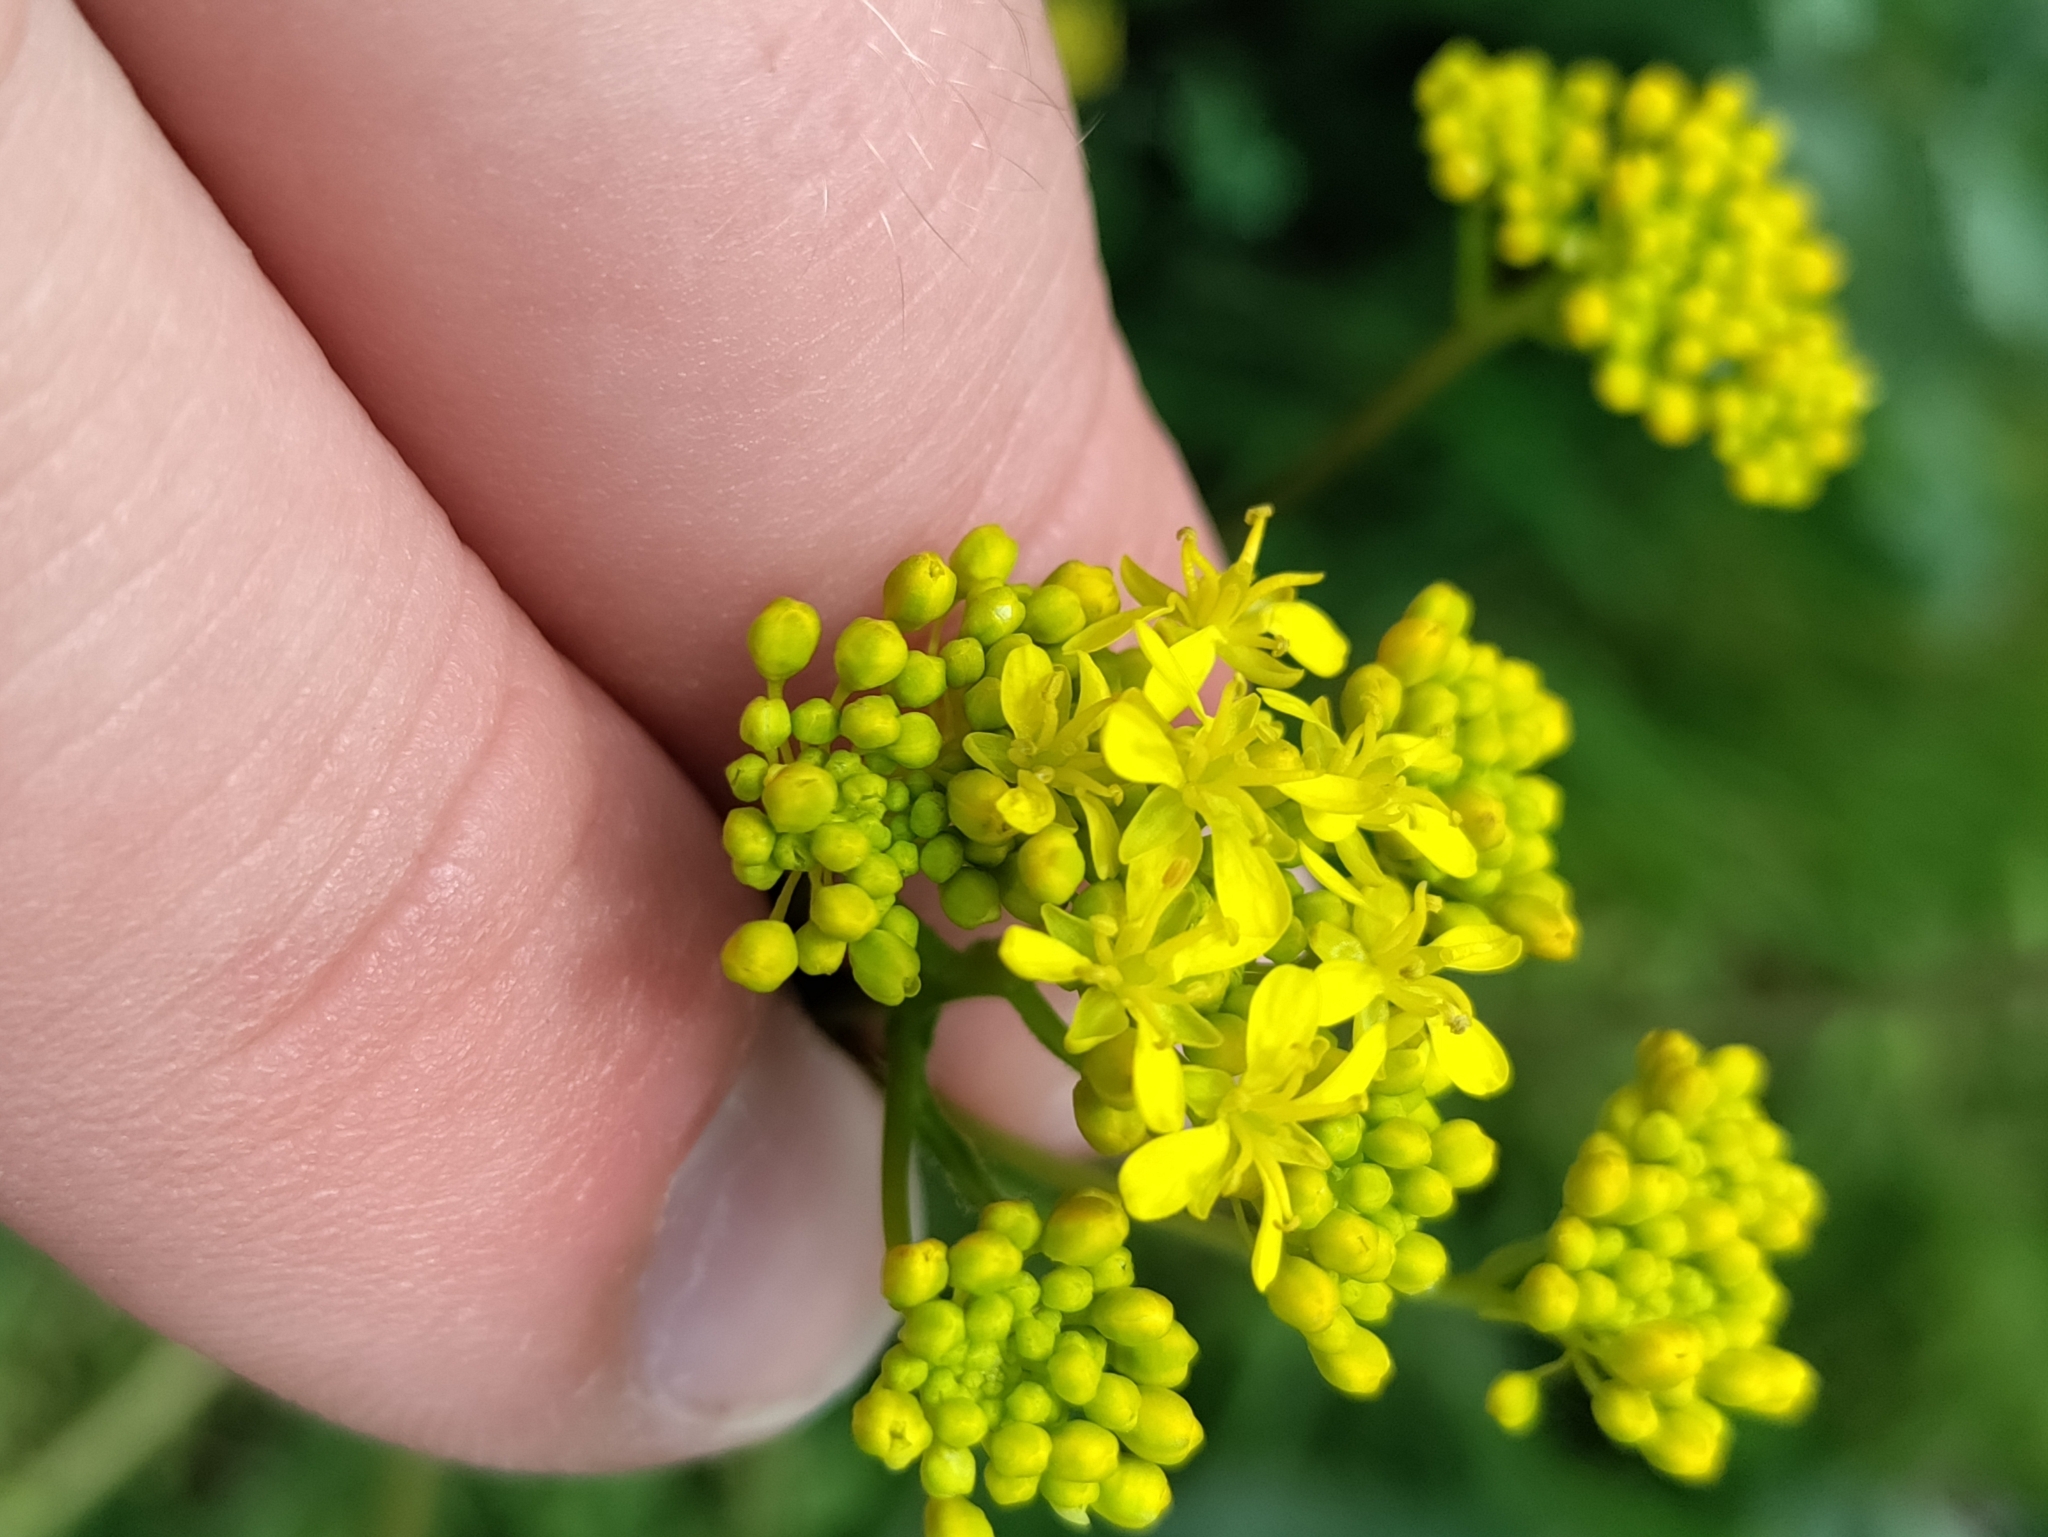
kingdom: Plantae
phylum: Tracheophyta
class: Magnoliopsida
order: Brassicales
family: Brassicaceae
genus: Isatis
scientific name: Isatis tinctoria
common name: Woad
